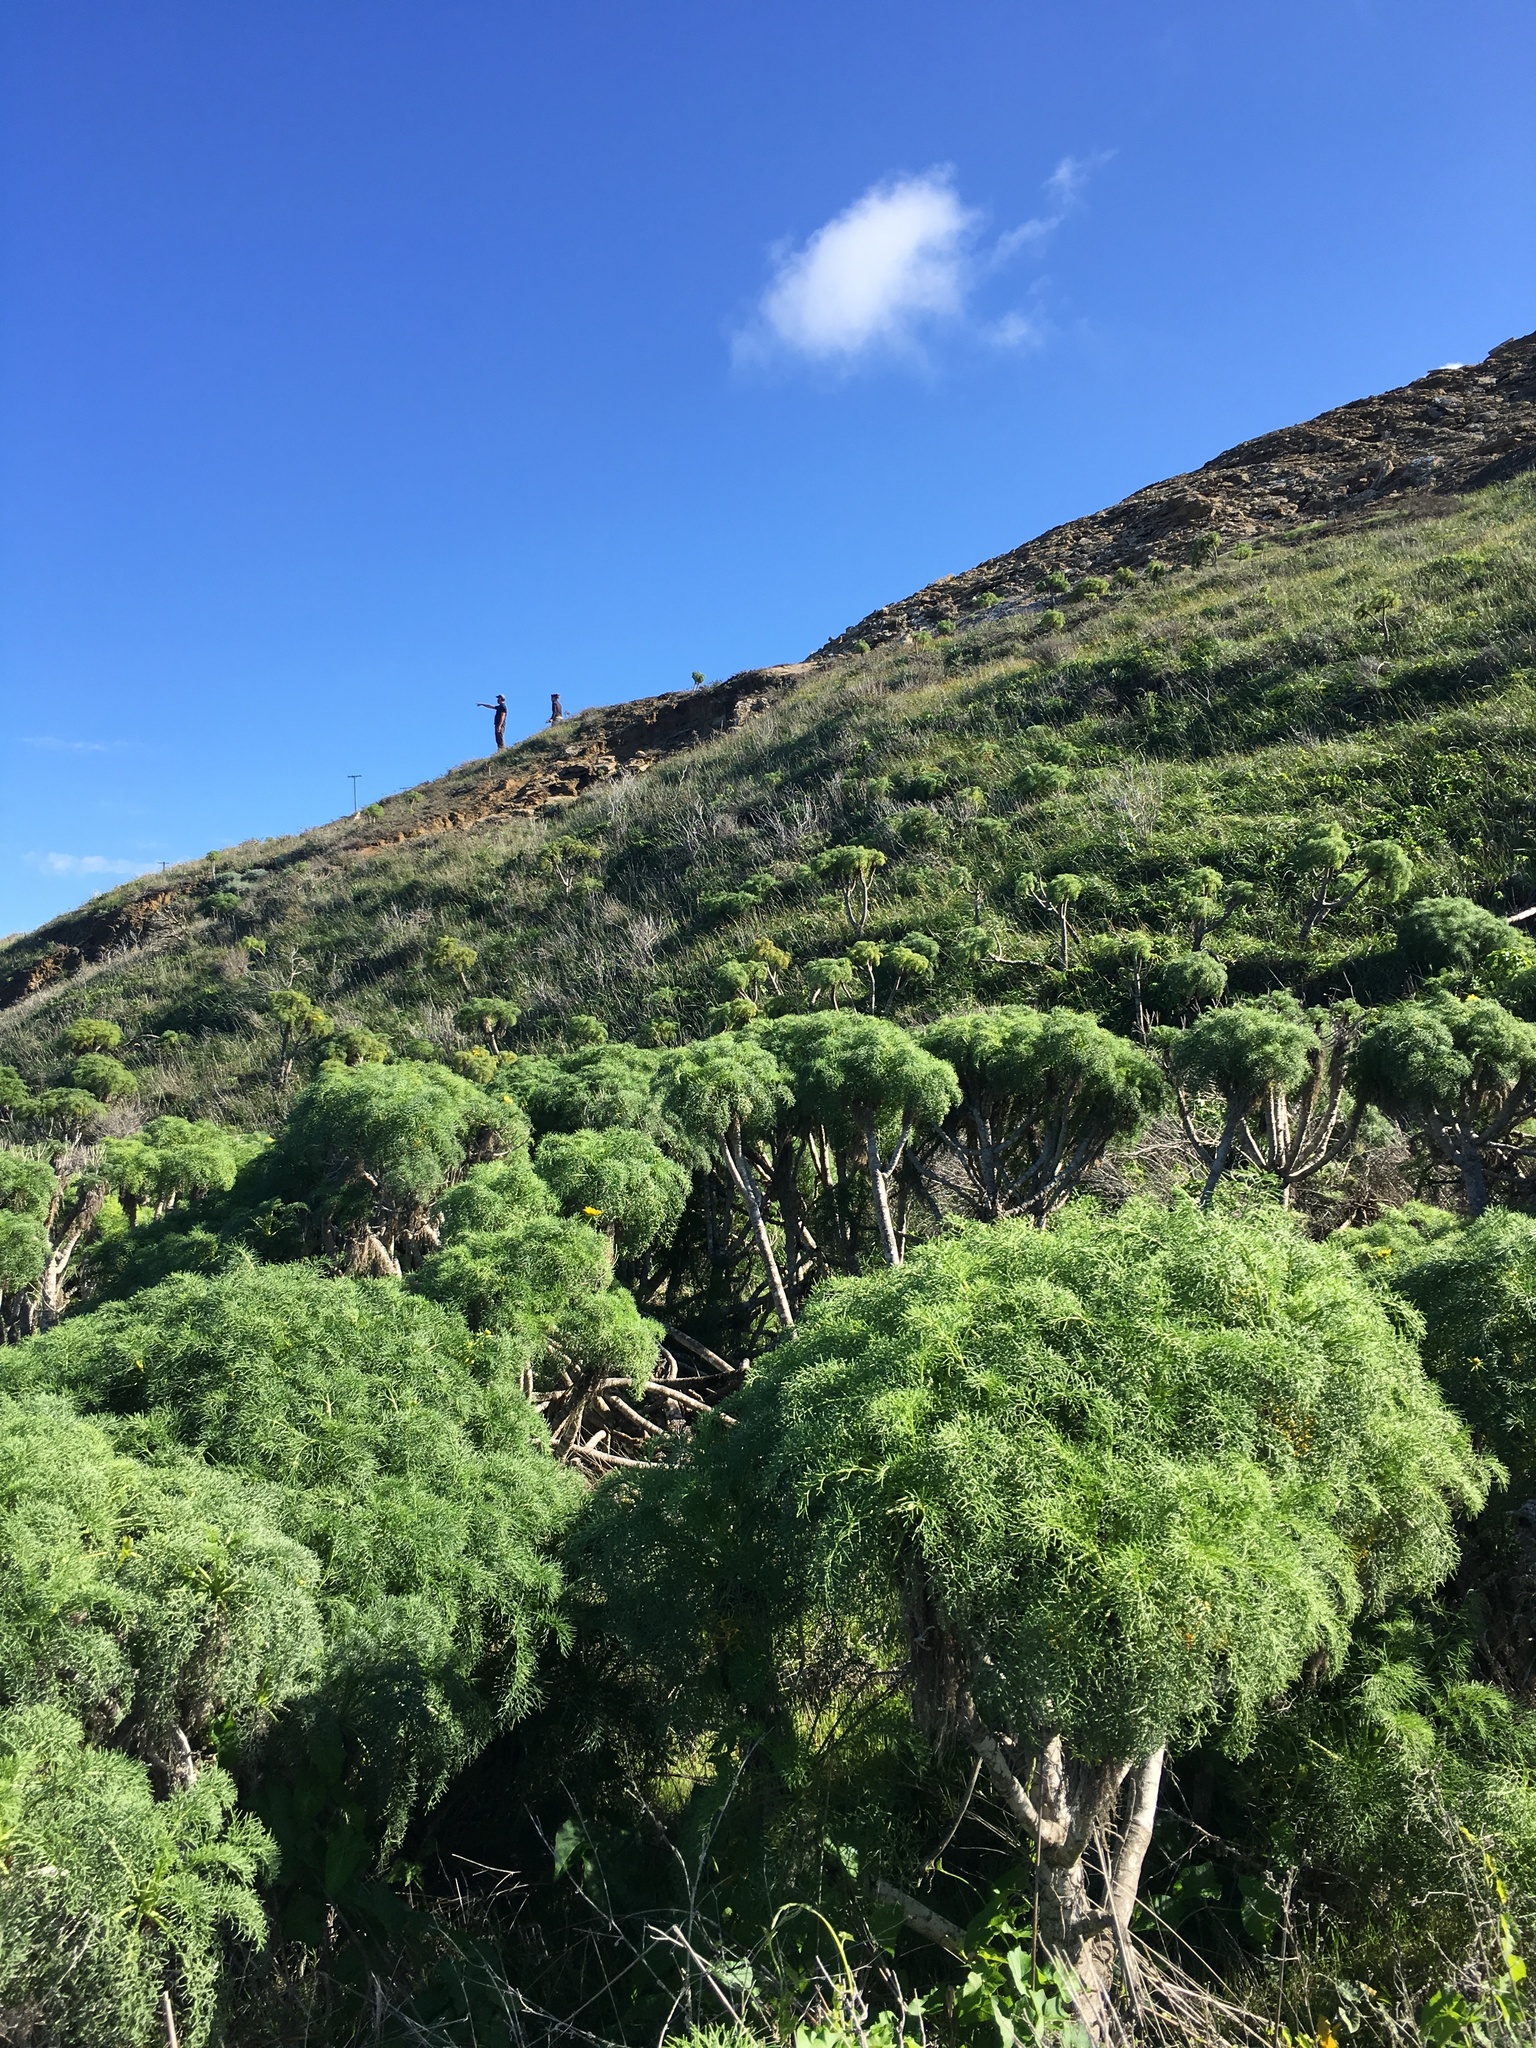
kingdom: Plantae
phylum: Tracheophyta
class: Magnoliopsida
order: Asterales
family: Asteraceae
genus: Coreopsis
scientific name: Coreopsis gigantea
